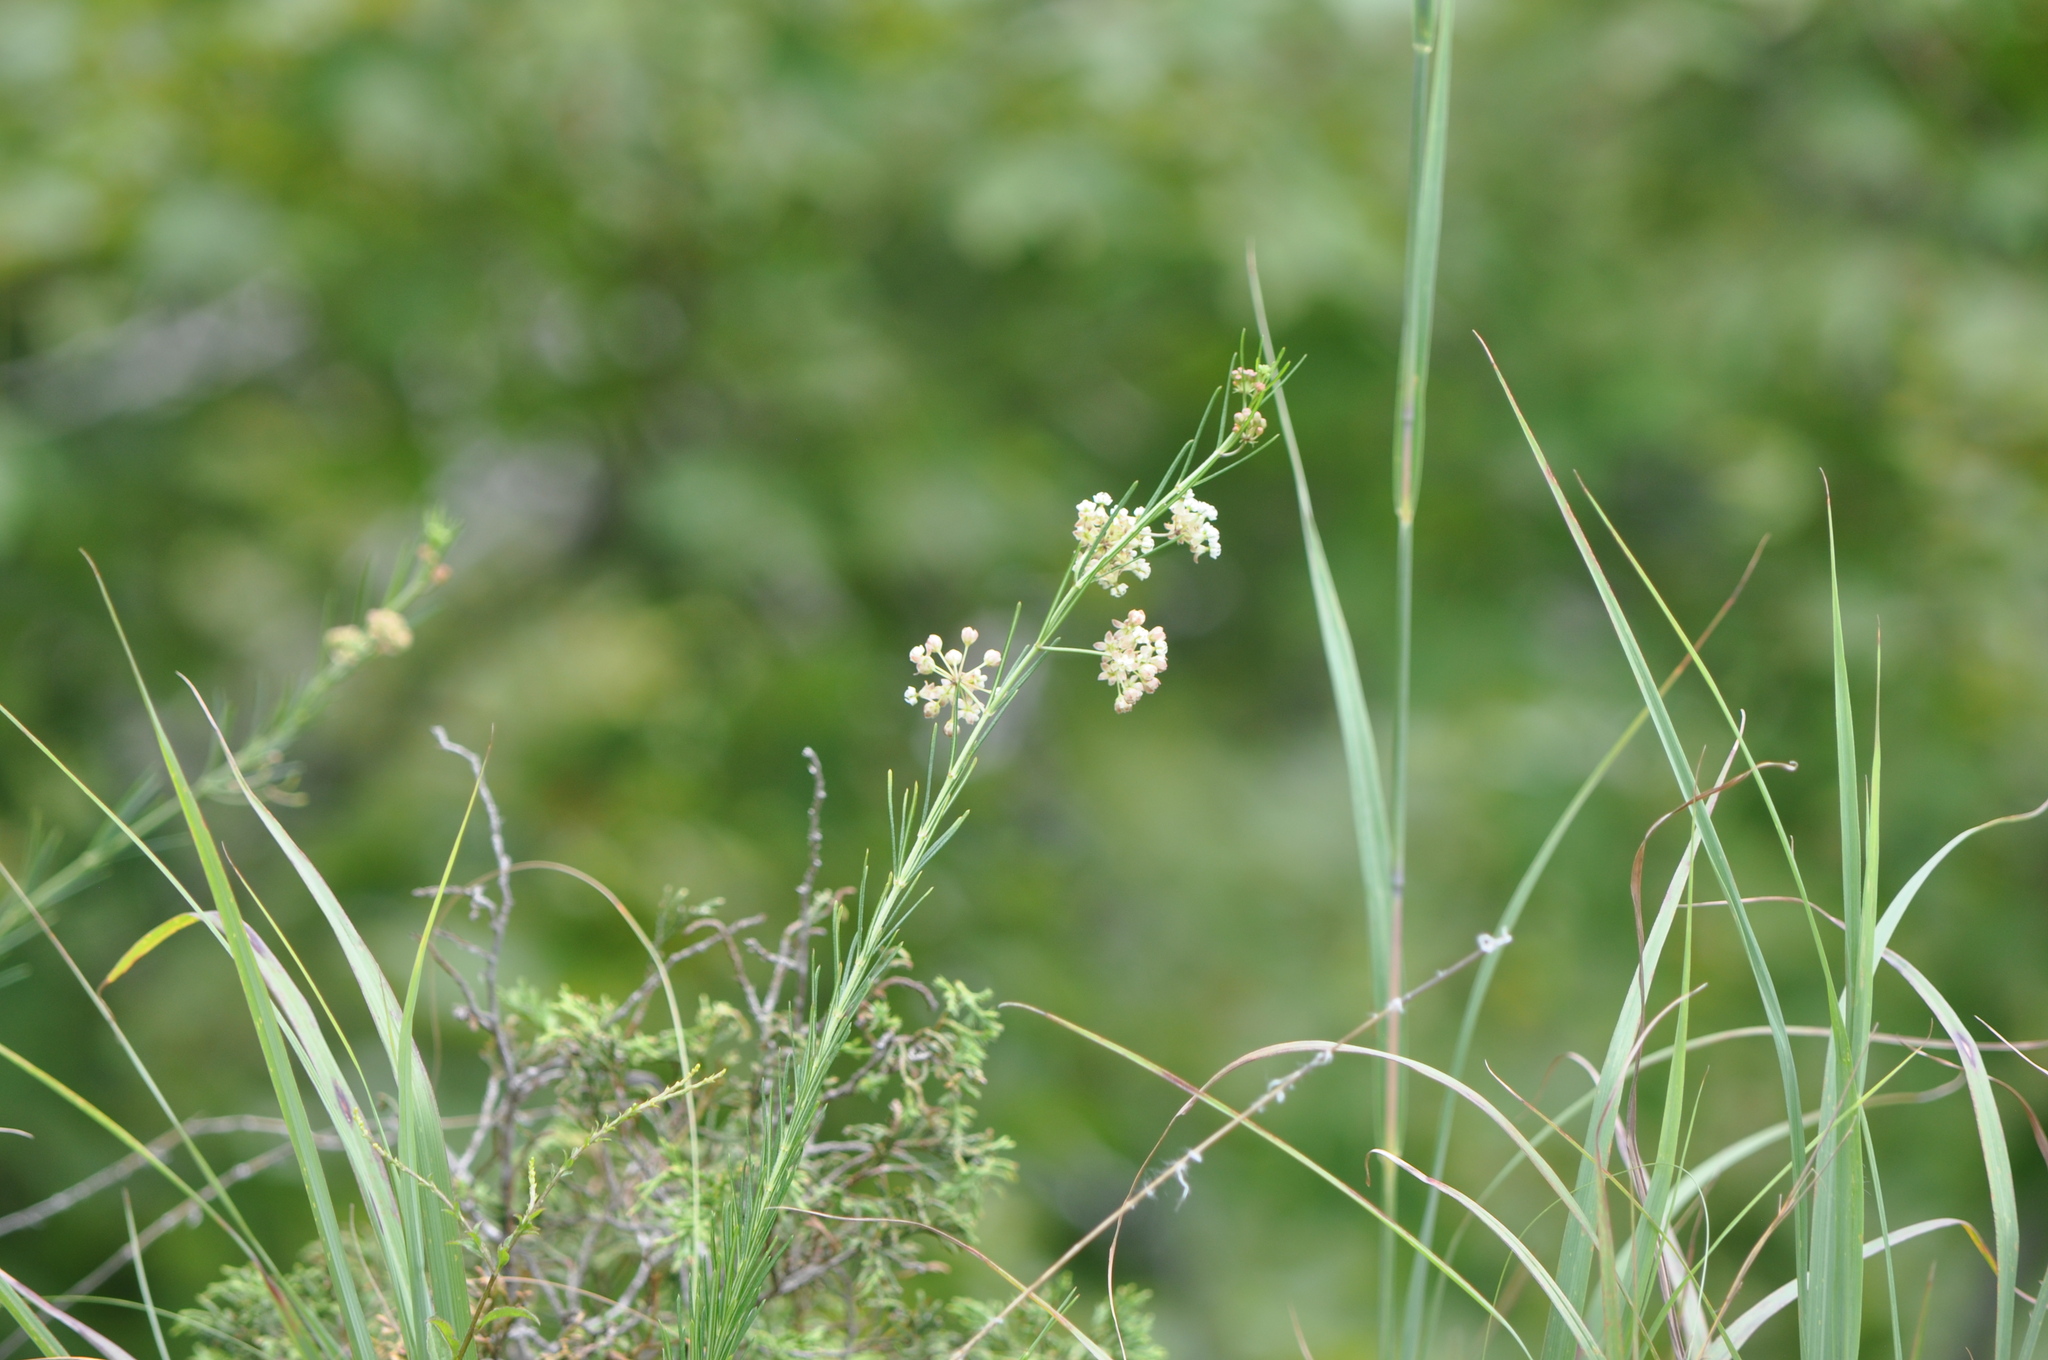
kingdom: Plantae
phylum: Tracheophyta
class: Magnoliopsida
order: Gentianales
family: Apocynaceae
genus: Asclepias
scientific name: Asclepias verticillata
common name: Eastern whorled milkweed
